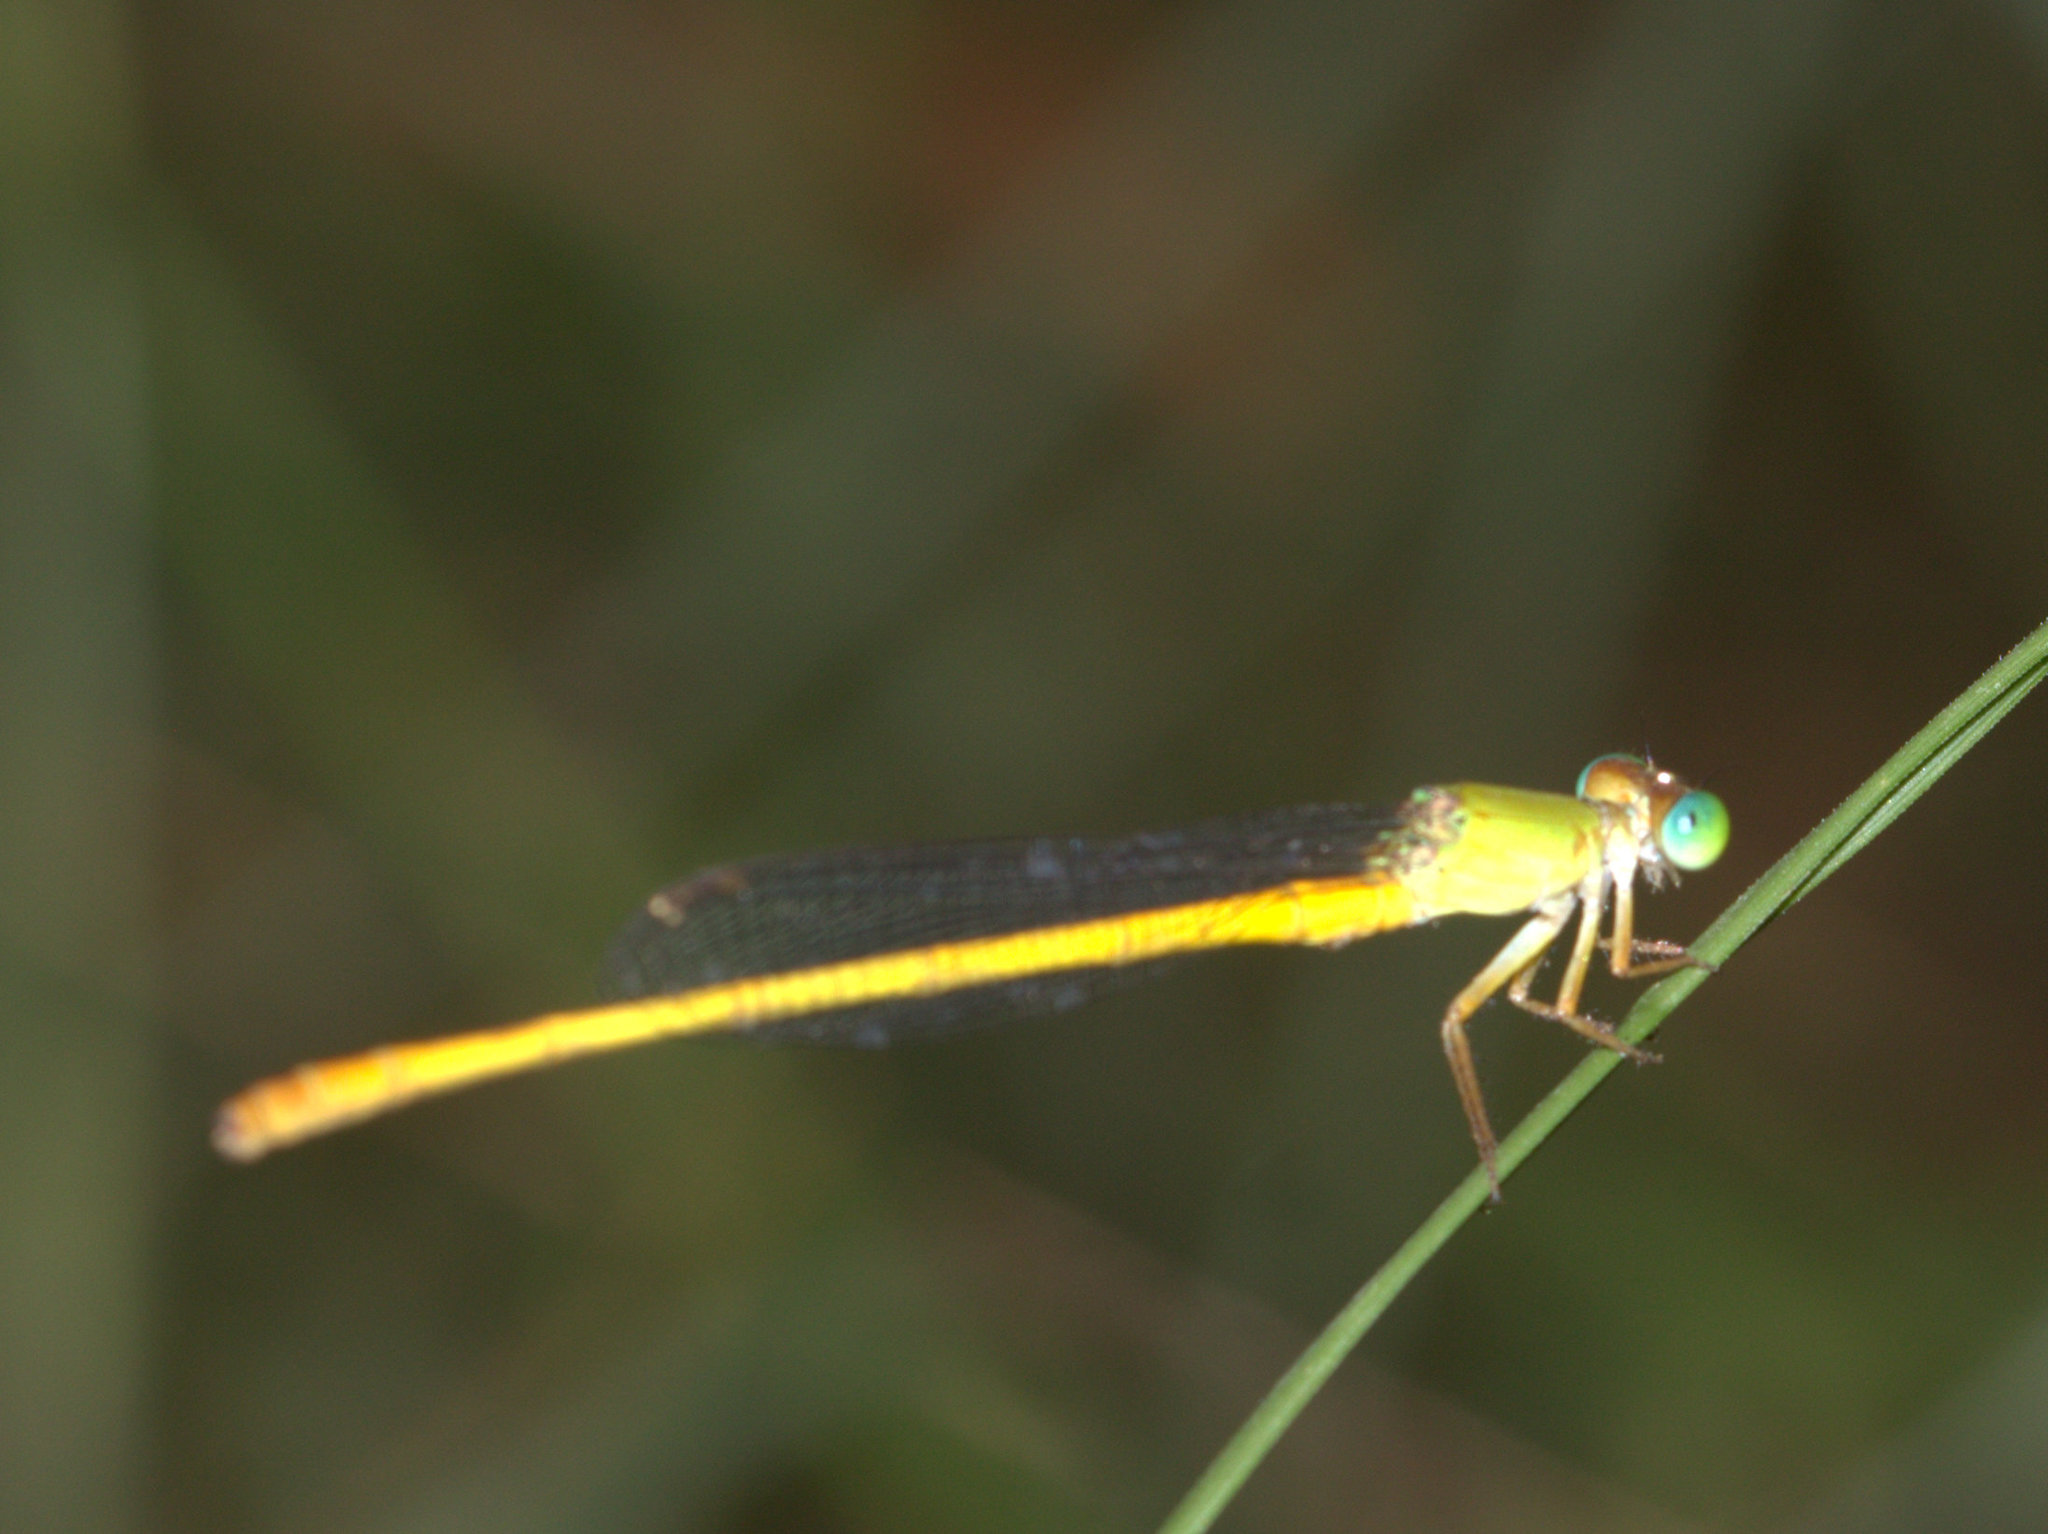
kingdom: Animalia
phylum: Arthropoda
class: Insecta
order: Odonata
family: Coenagrionidae
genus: Ceriagrion
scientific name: Ceriagrion coromandelianum
